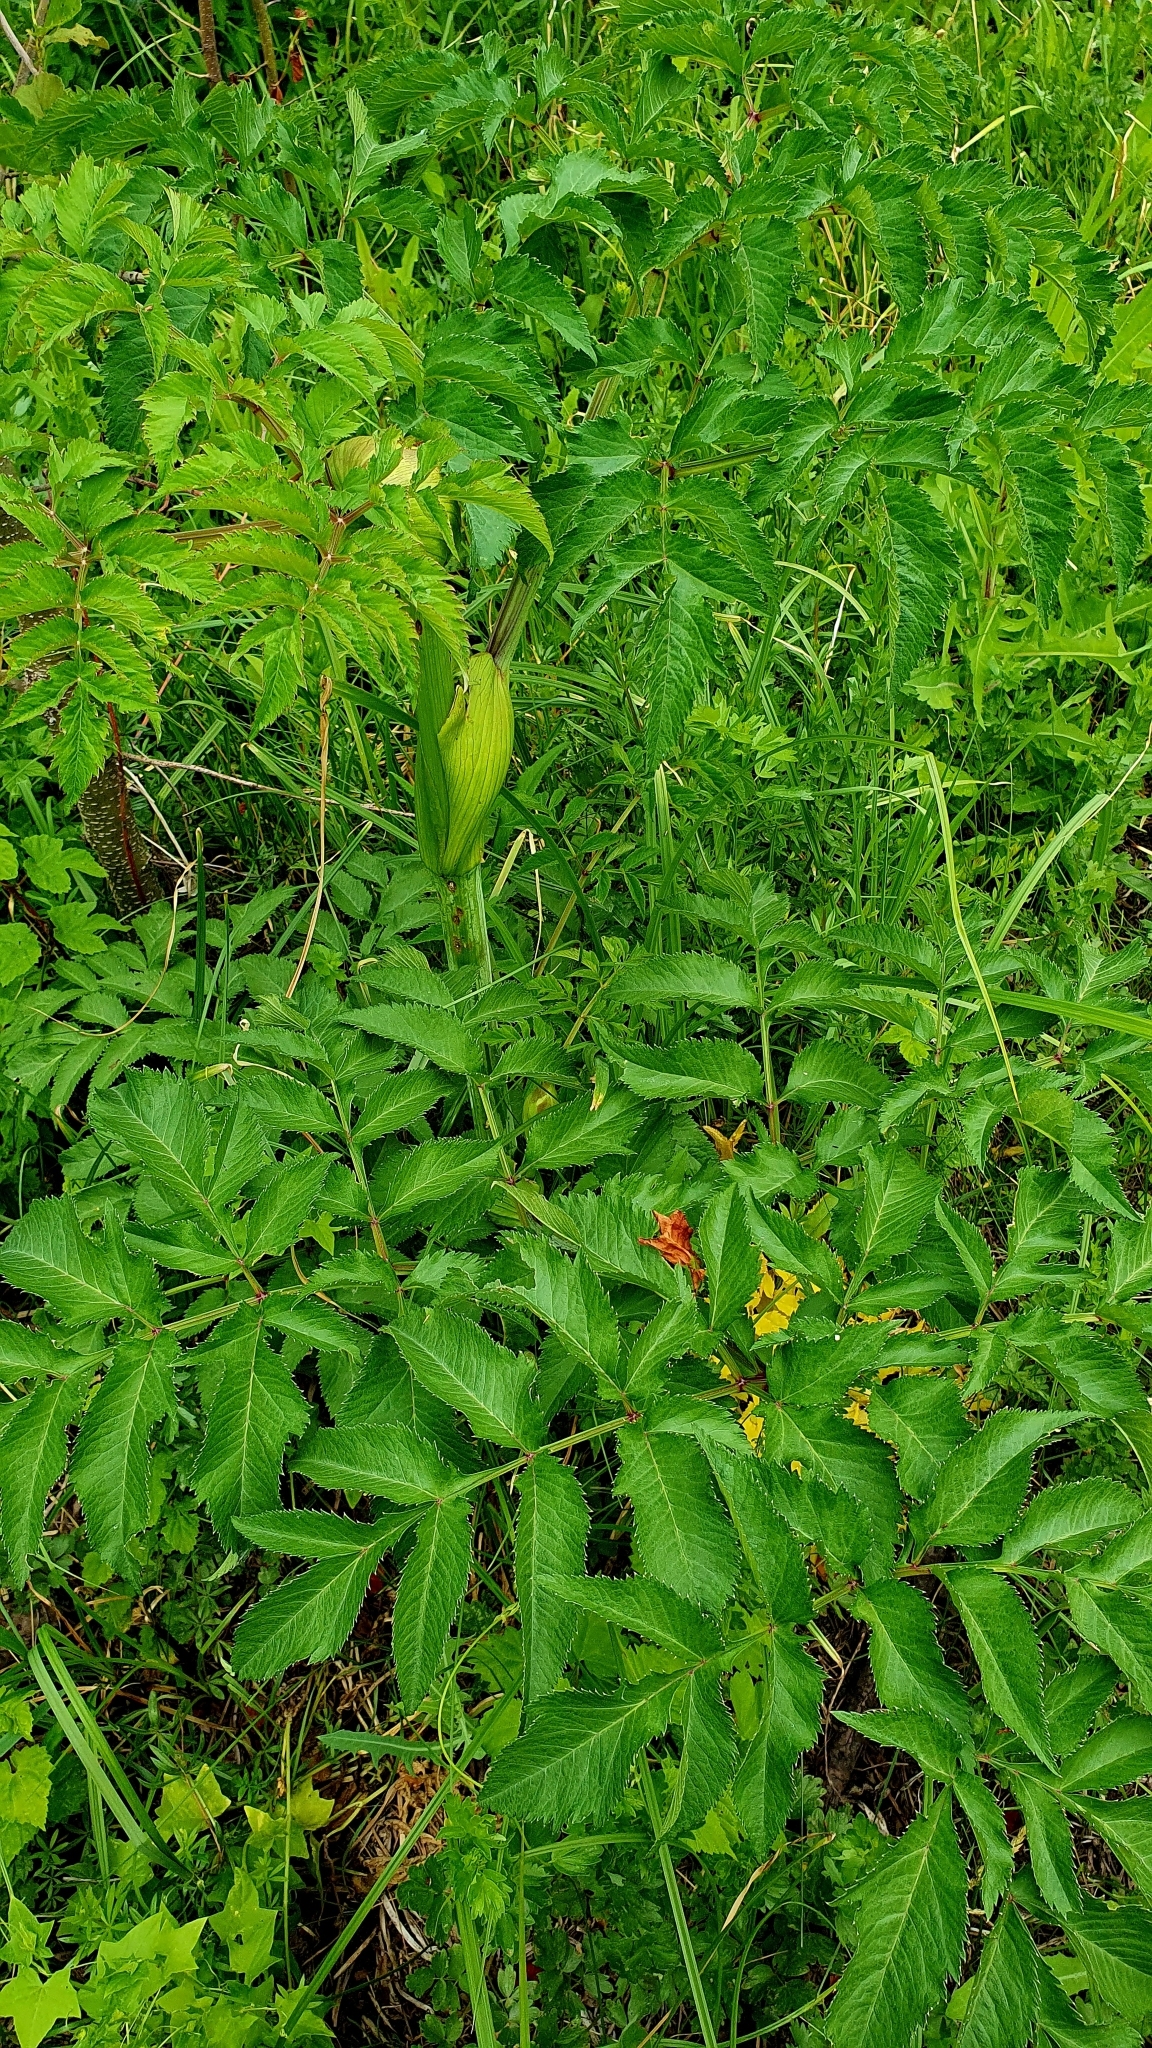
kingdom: Plantae
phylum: Tracheophyta
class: Magnoliopsida
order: Apiales
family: Apiaceae
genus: Angelica
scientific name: Angelica sylvestris
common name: Wild angelica
